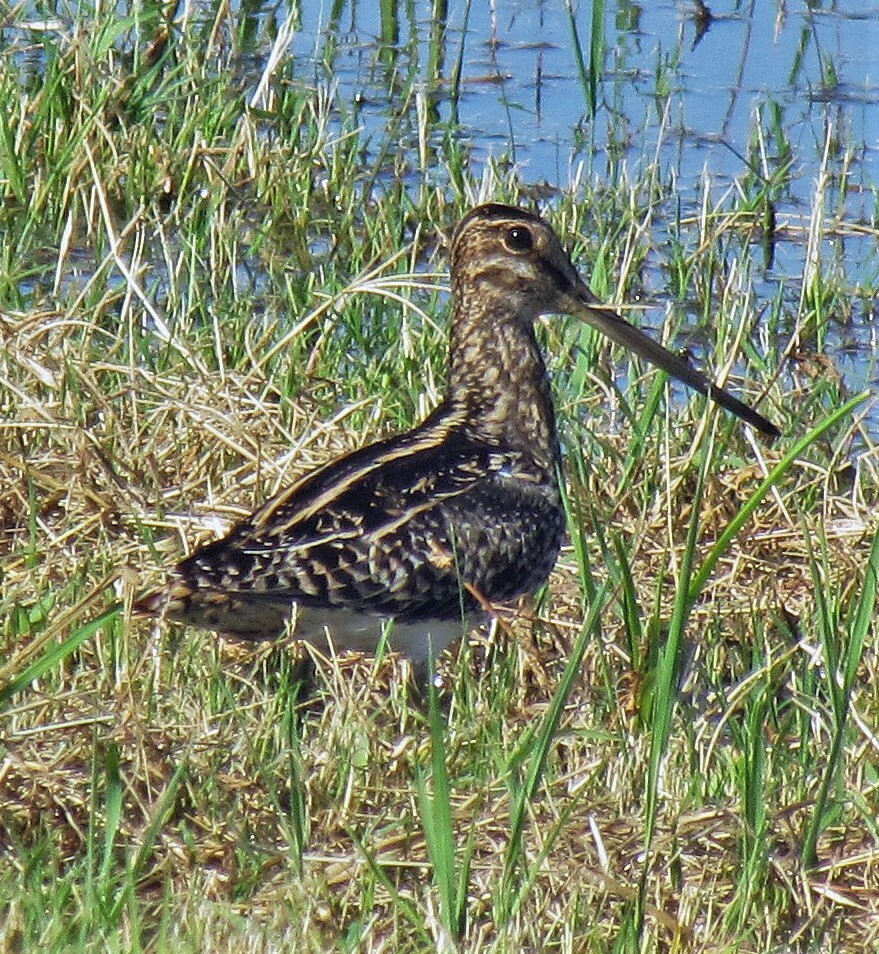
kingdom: Animalia
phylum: Chordata
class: Aves
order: Charadriiformes
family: Scolopacidae
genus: Gallinago
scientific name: Gallinago paraguaiae
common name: South american snipe
